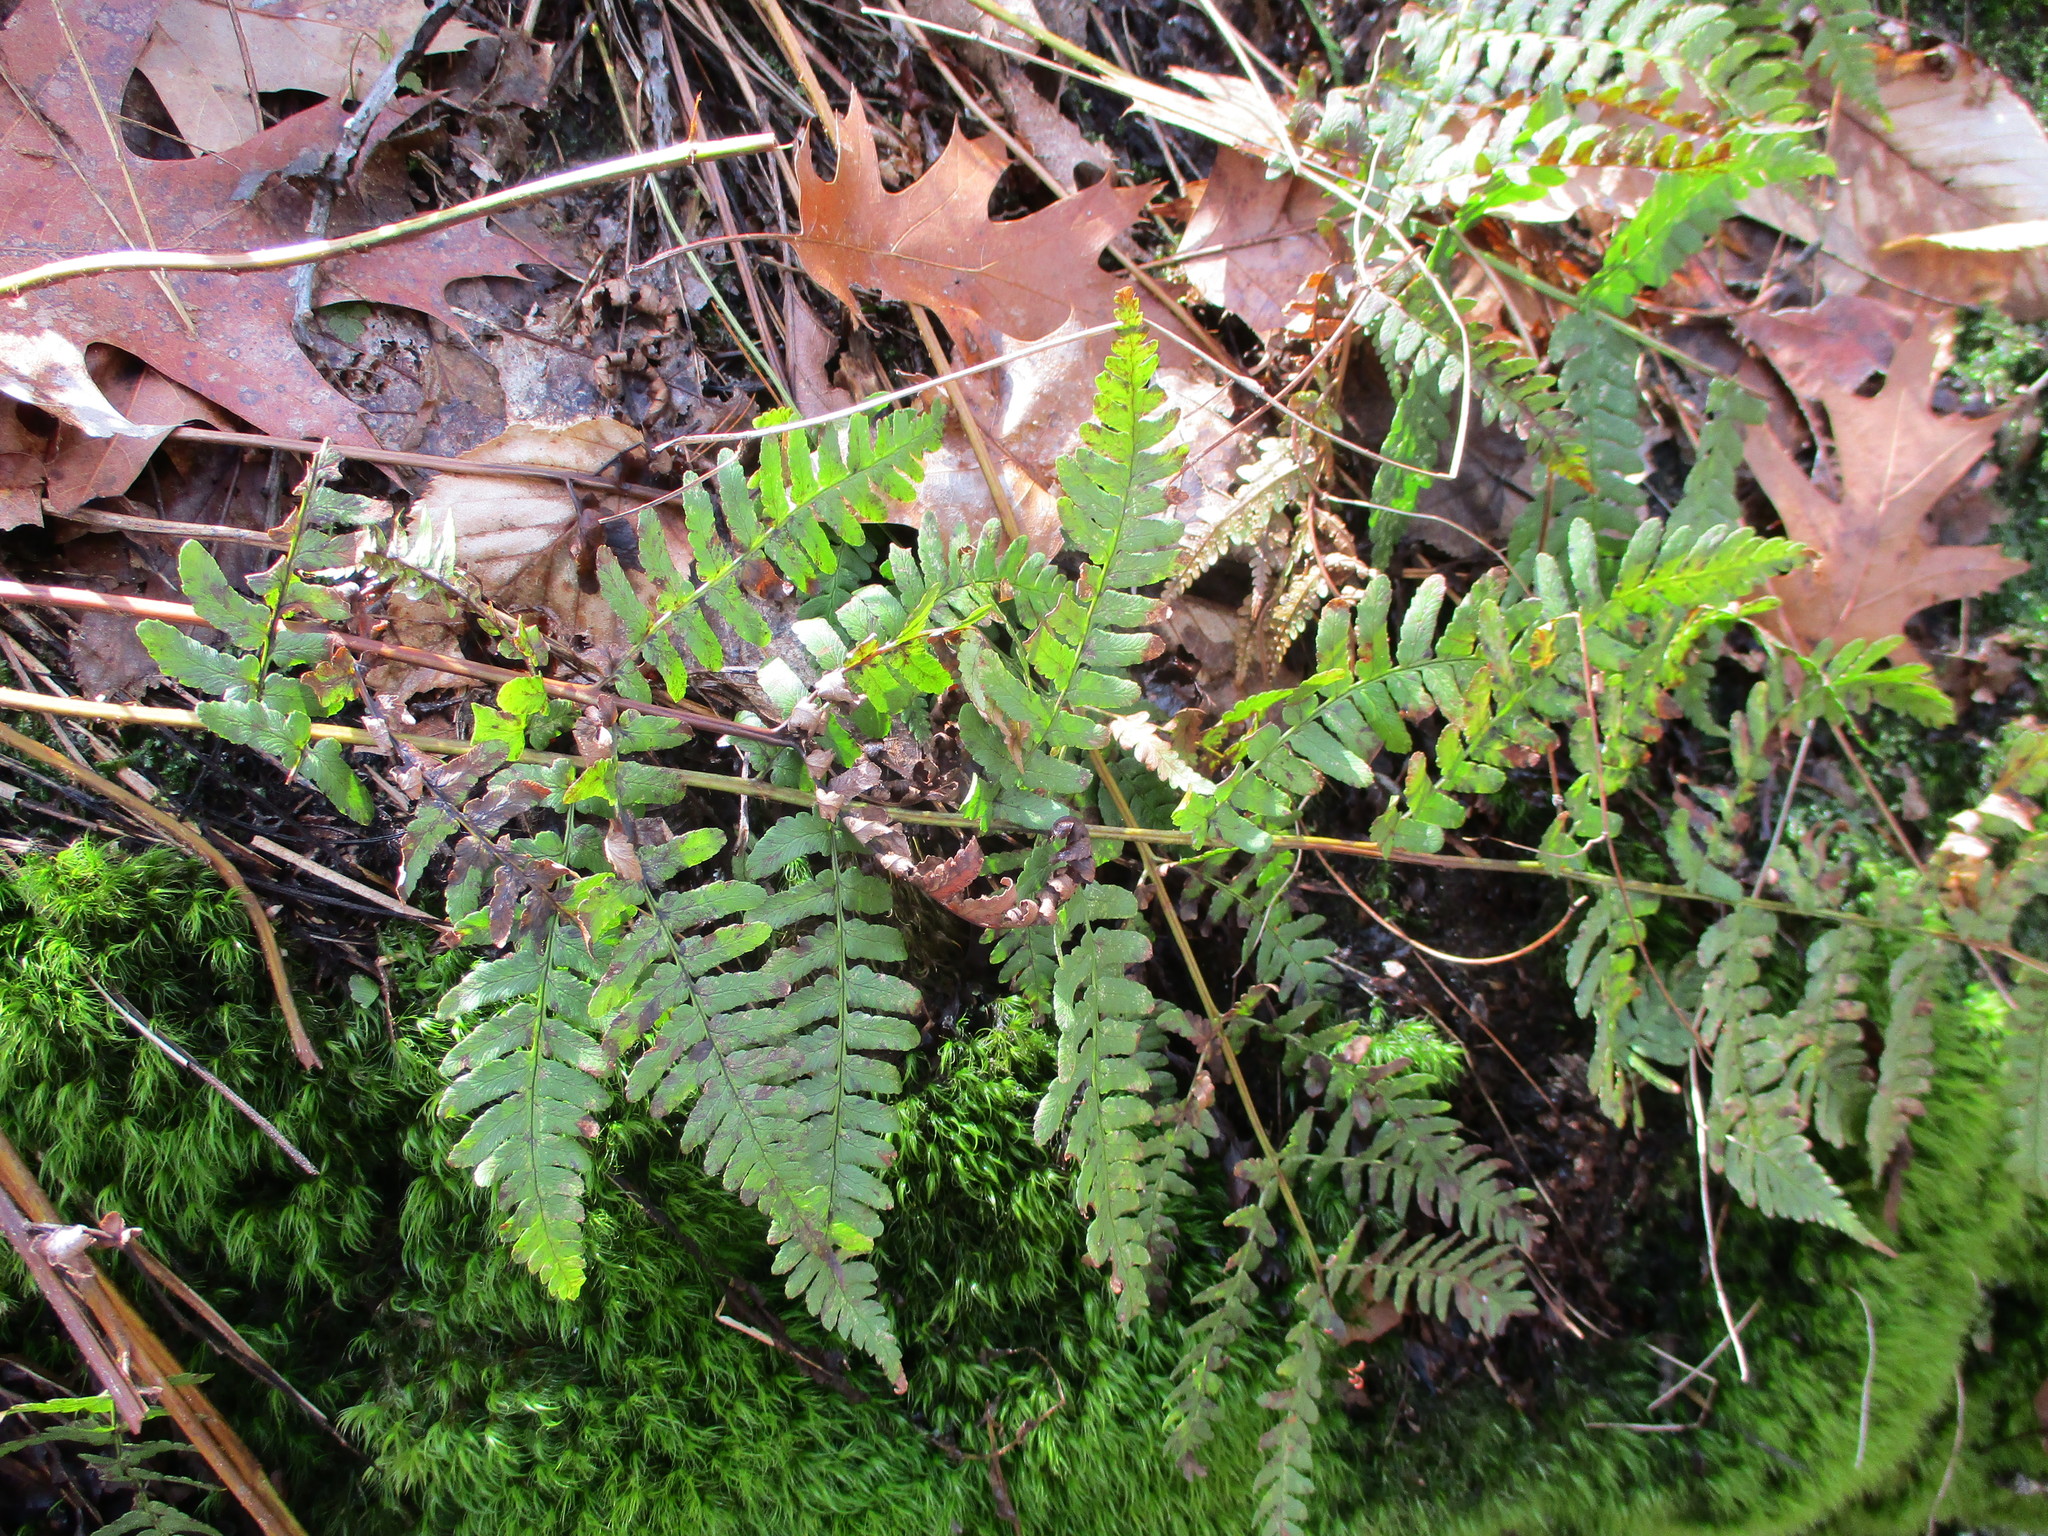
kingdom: Plantae
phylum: Tracheophyta
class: Polypodiopsida
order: Polypodiales
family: Dryopteridaceae
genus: Dryopteris
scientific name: Dryopteris marginalis
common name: Marginal wood fern
